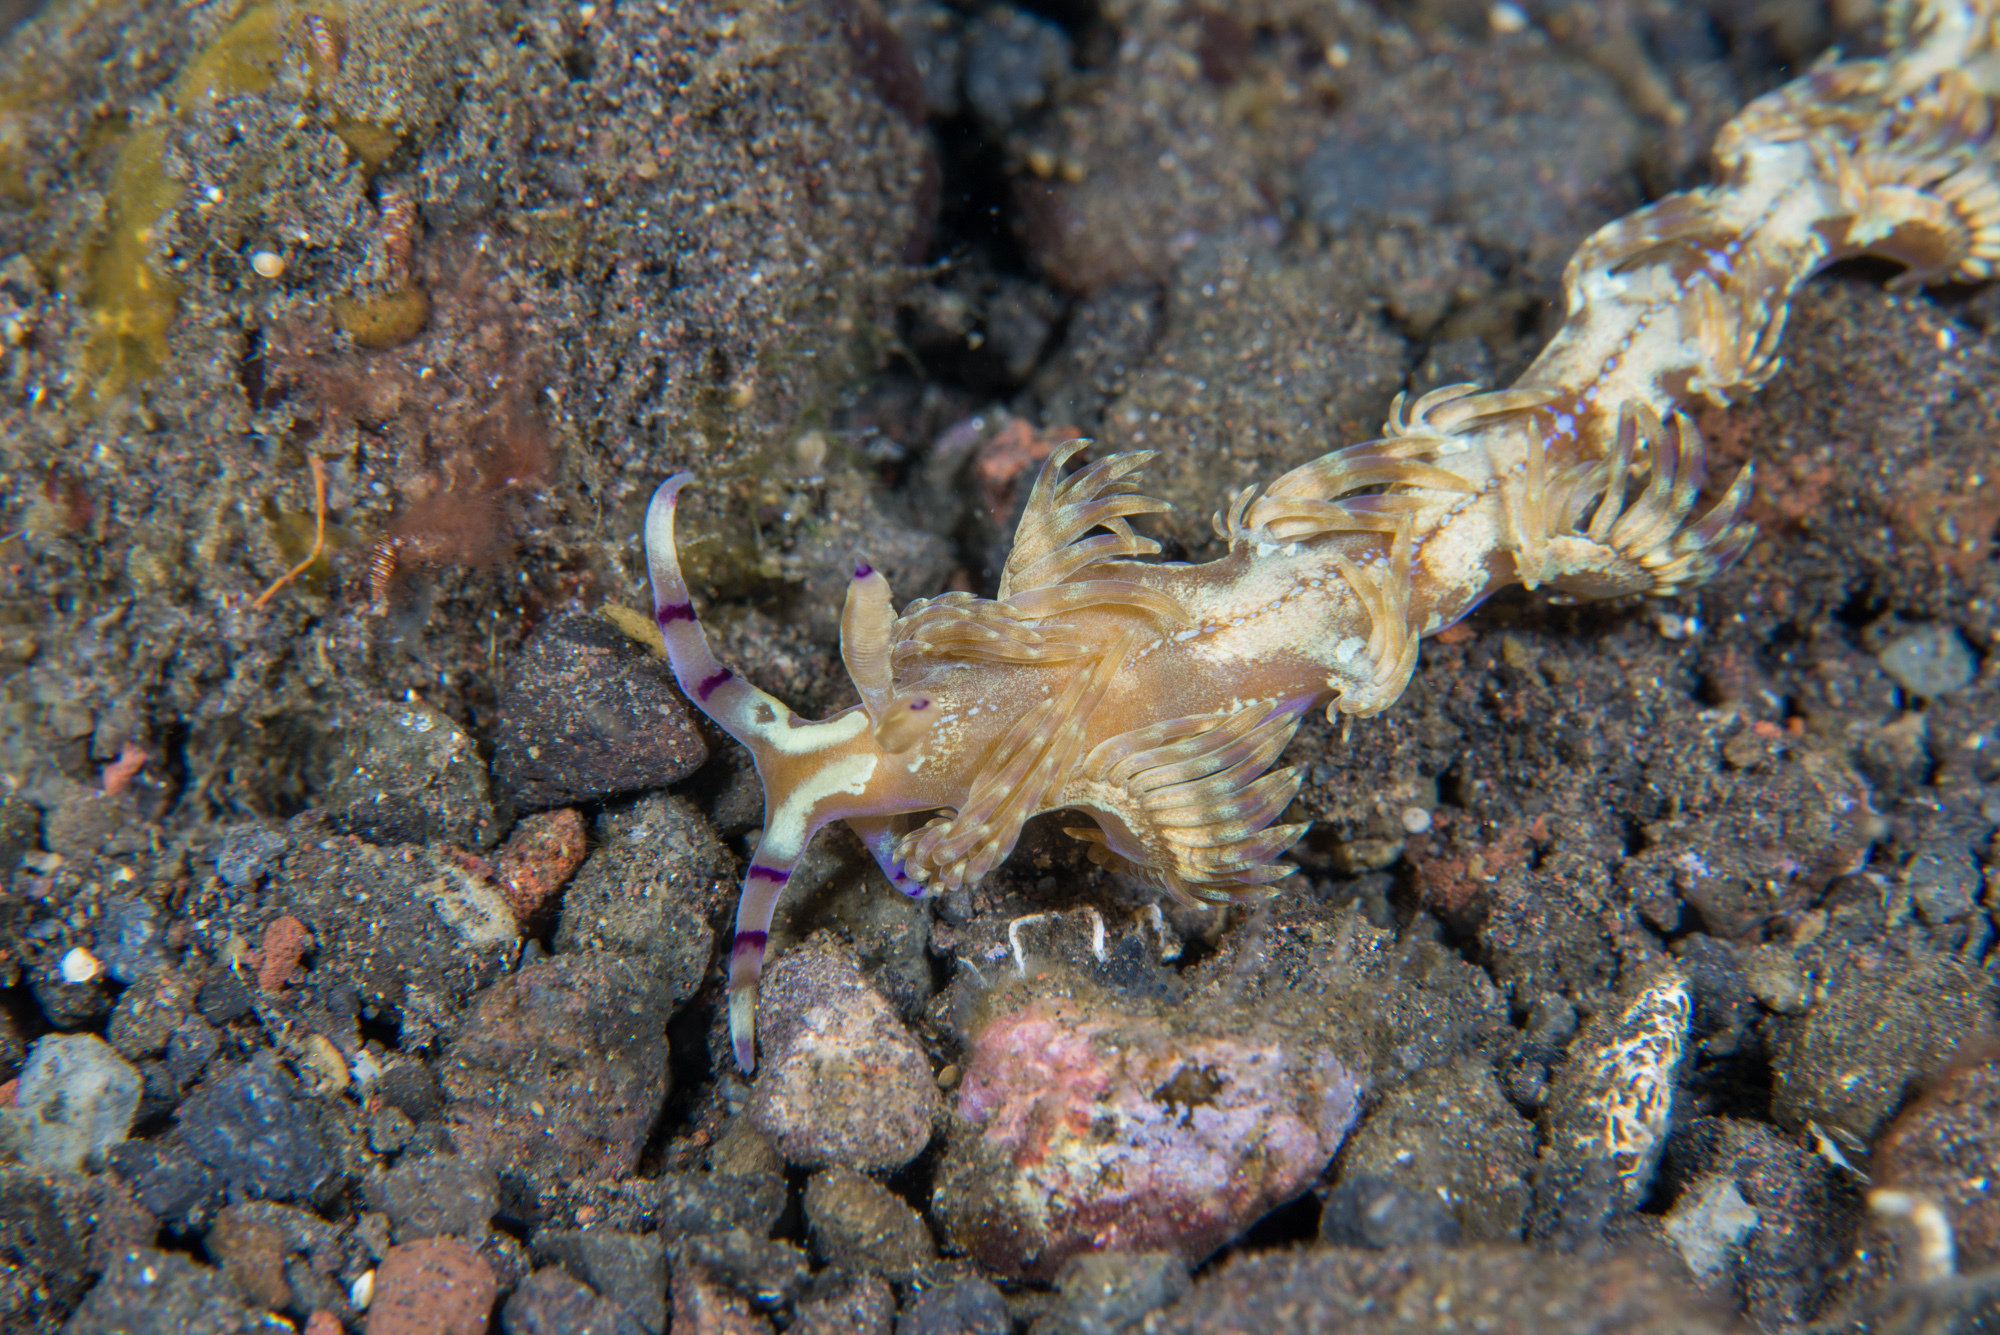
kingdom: Animalia
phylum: Mollusca
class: Gastropoda
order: Nudibranchia
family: Facelinidae
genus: Pteraeolidia
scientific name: Pteraeolidia semperi
